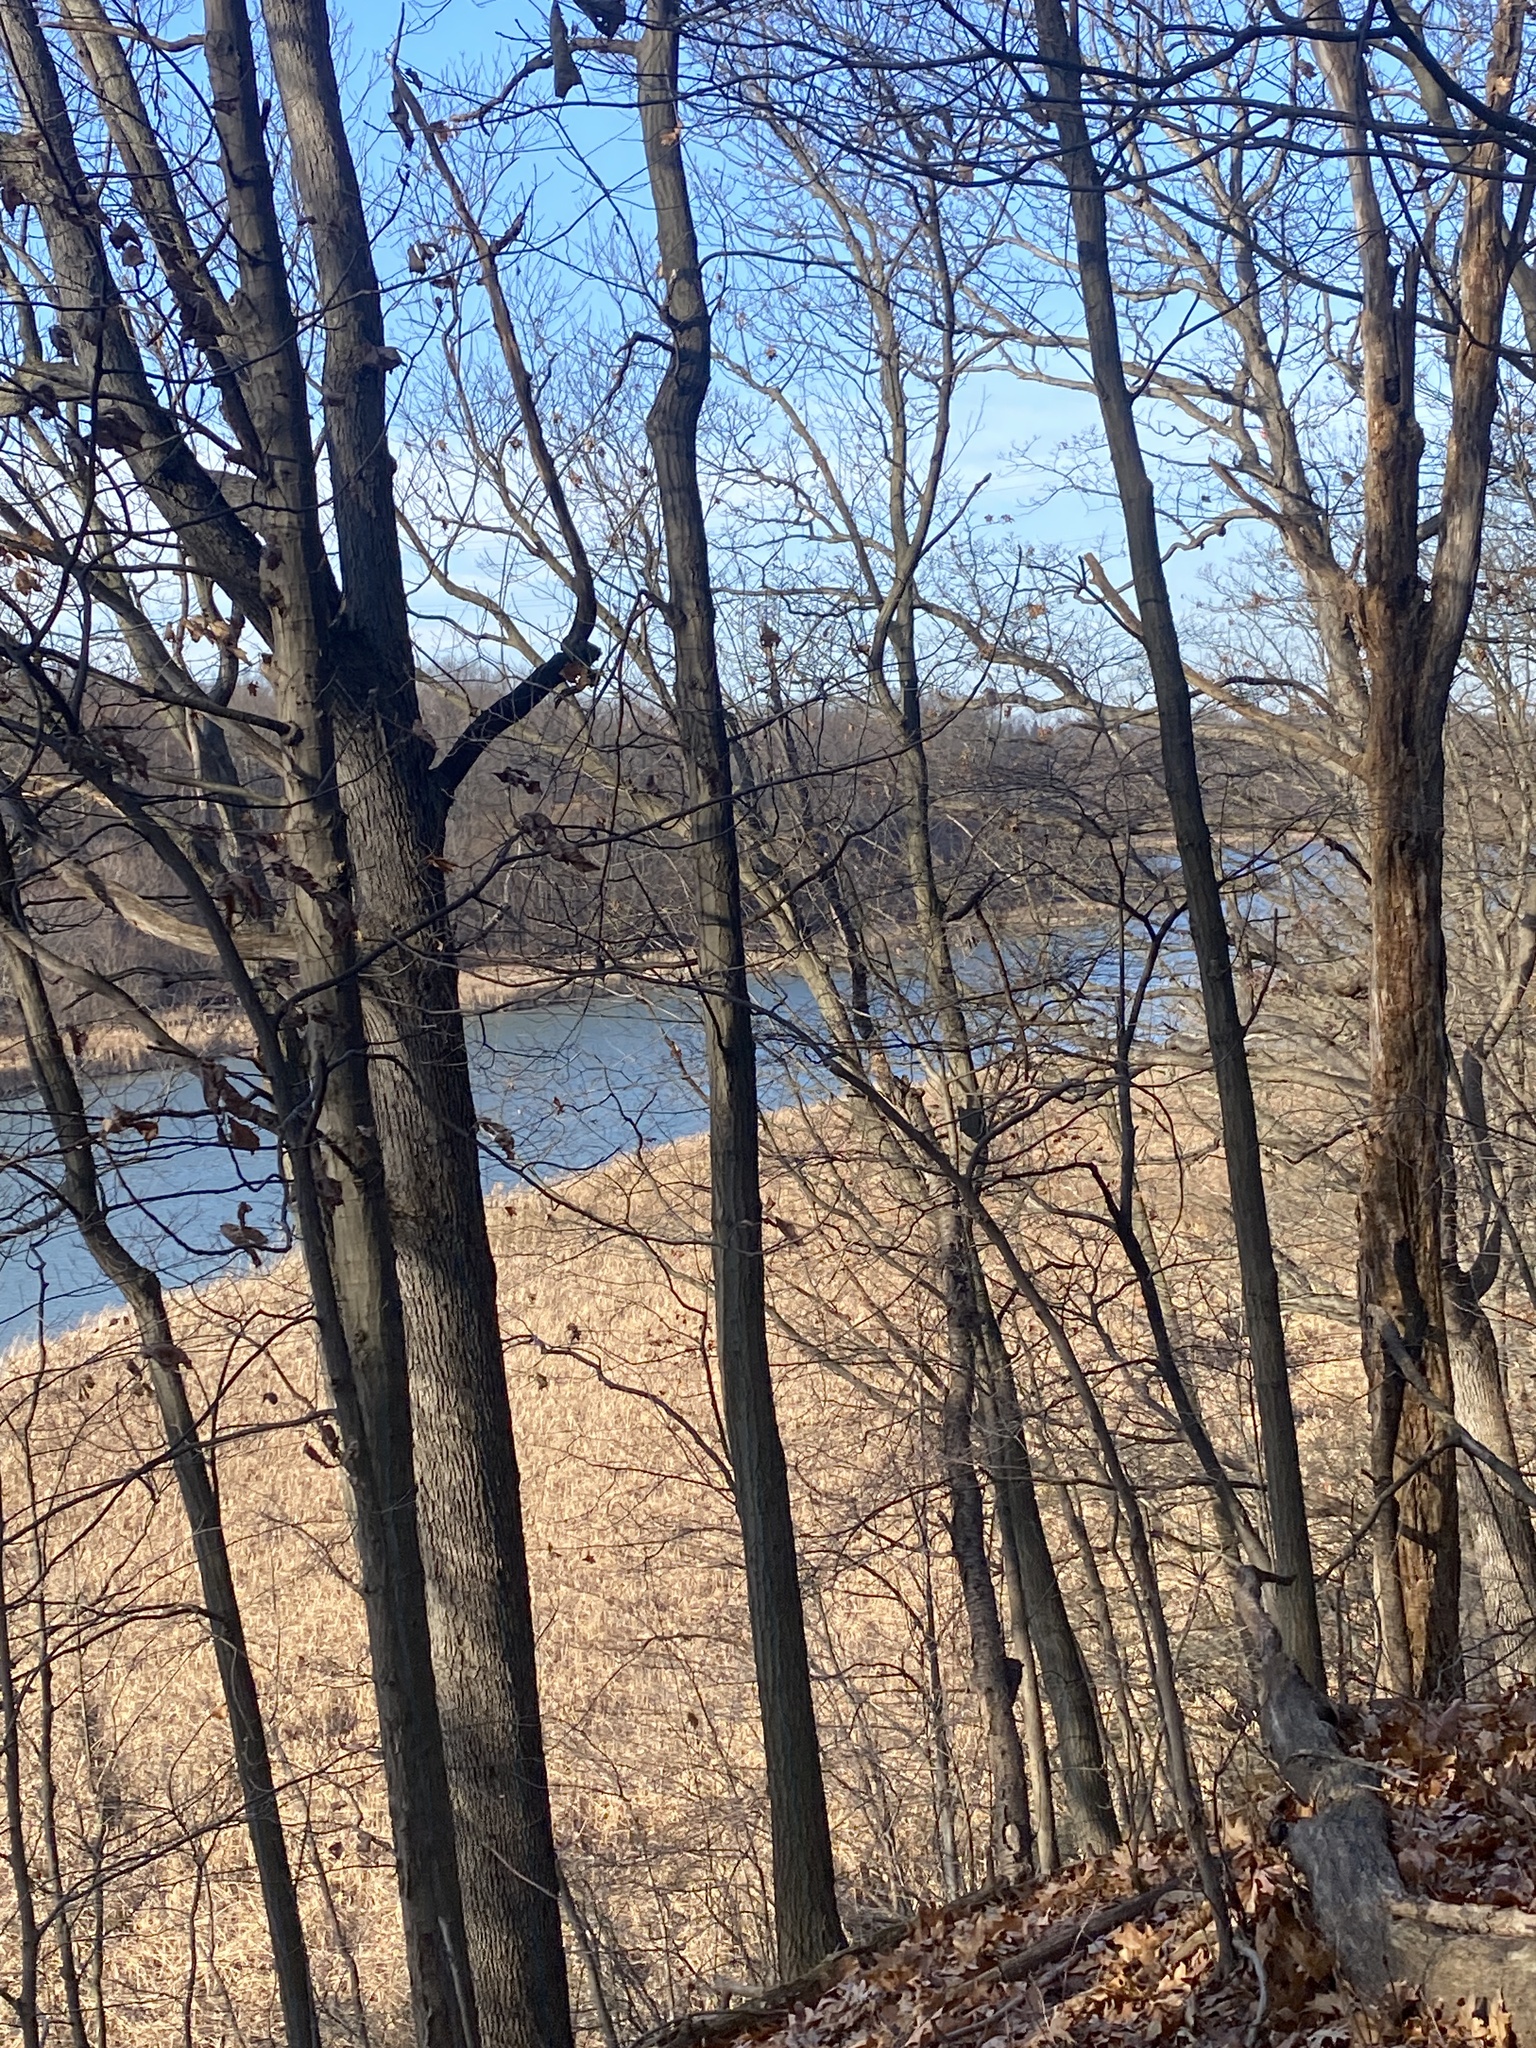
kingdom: Plantae
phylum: Tracheophyta
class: Magnoliopsida
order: Rosales
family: Rosaceae
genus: Prunus
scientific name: Prunus serotina
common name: Black cherry
